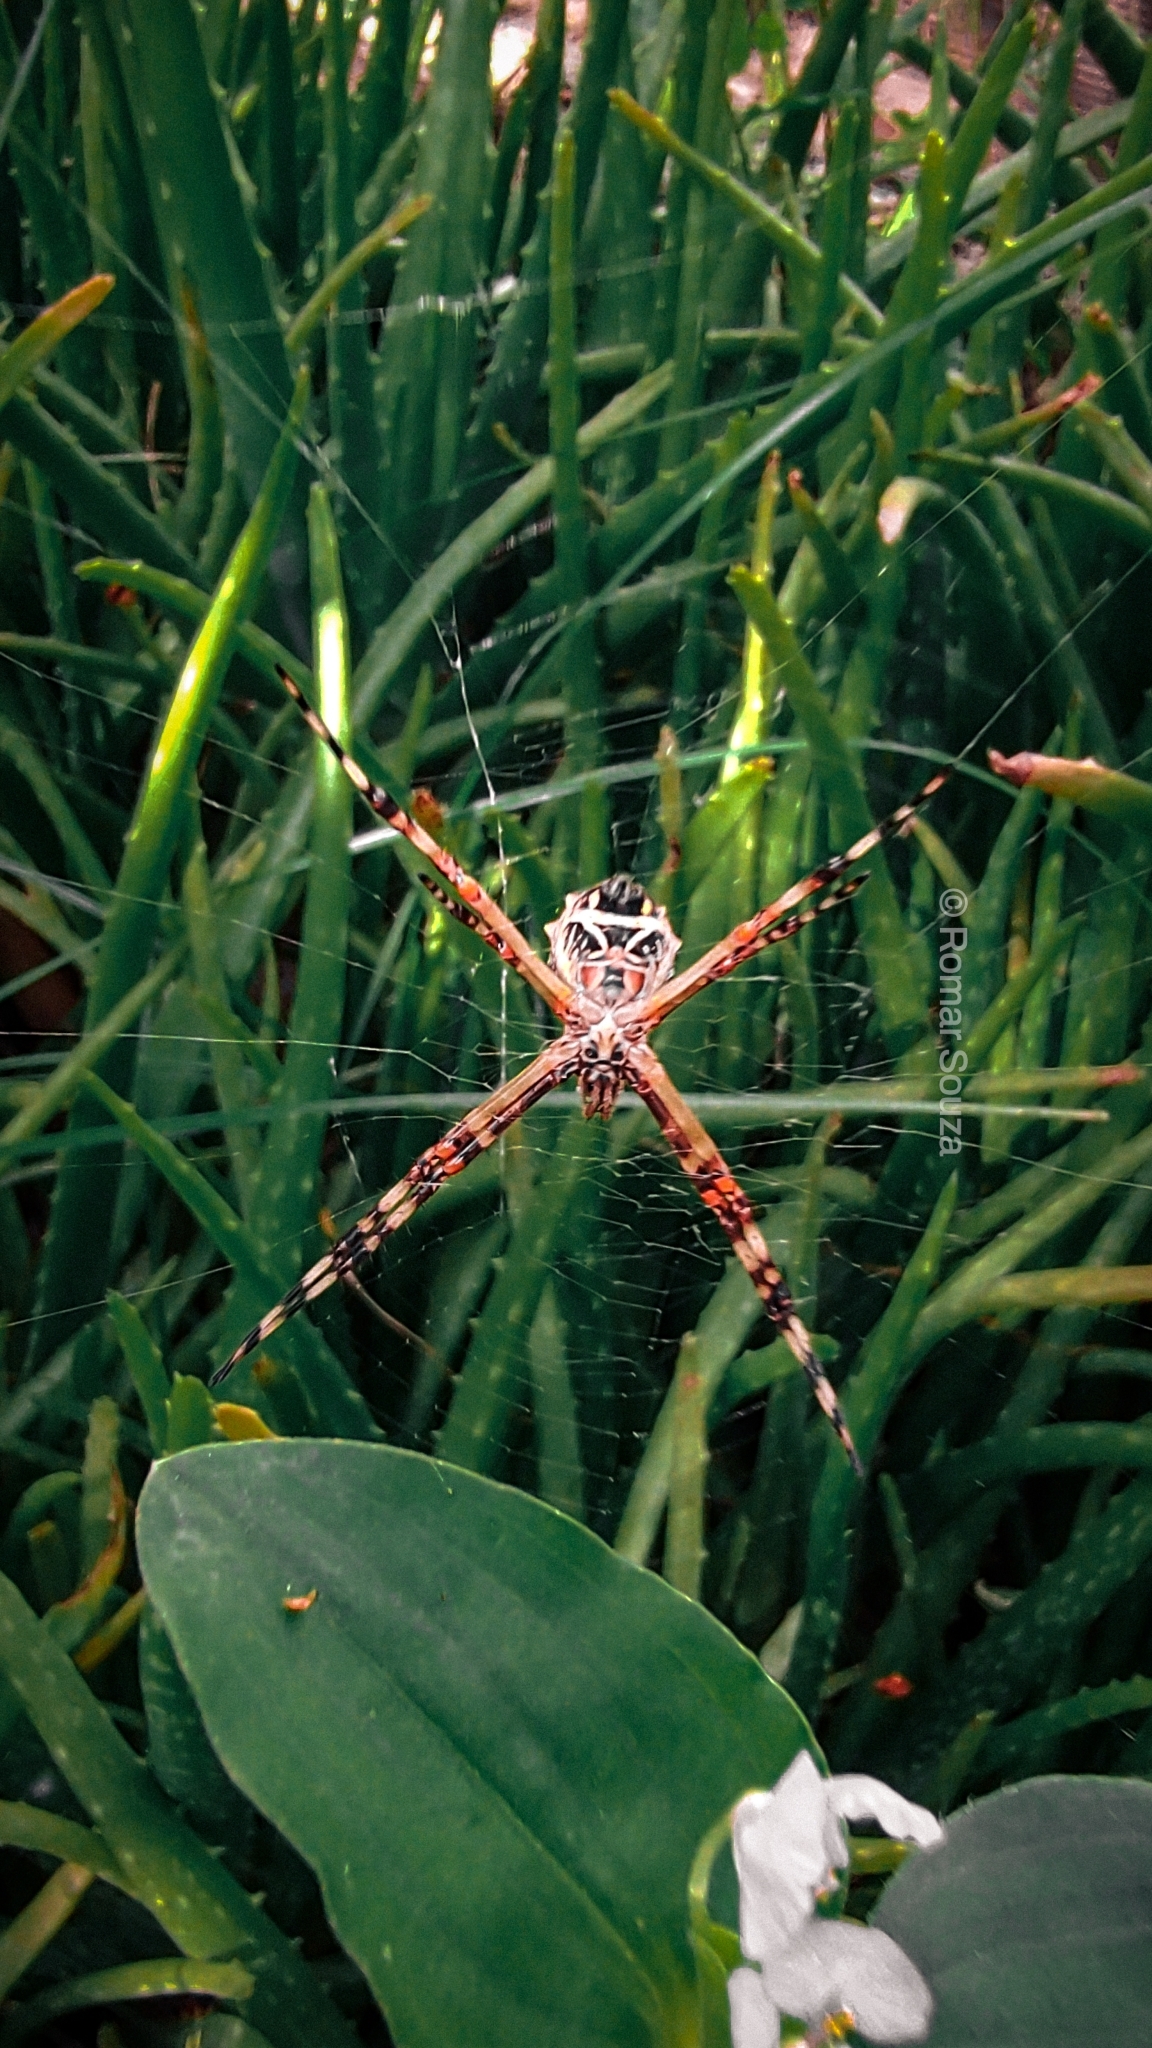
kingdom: Animalia
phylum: Arthropoda
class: Arachnida
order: Araneae
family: Araneidae
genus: Argiope
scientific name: Argiope argentata
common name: Orb weavers
